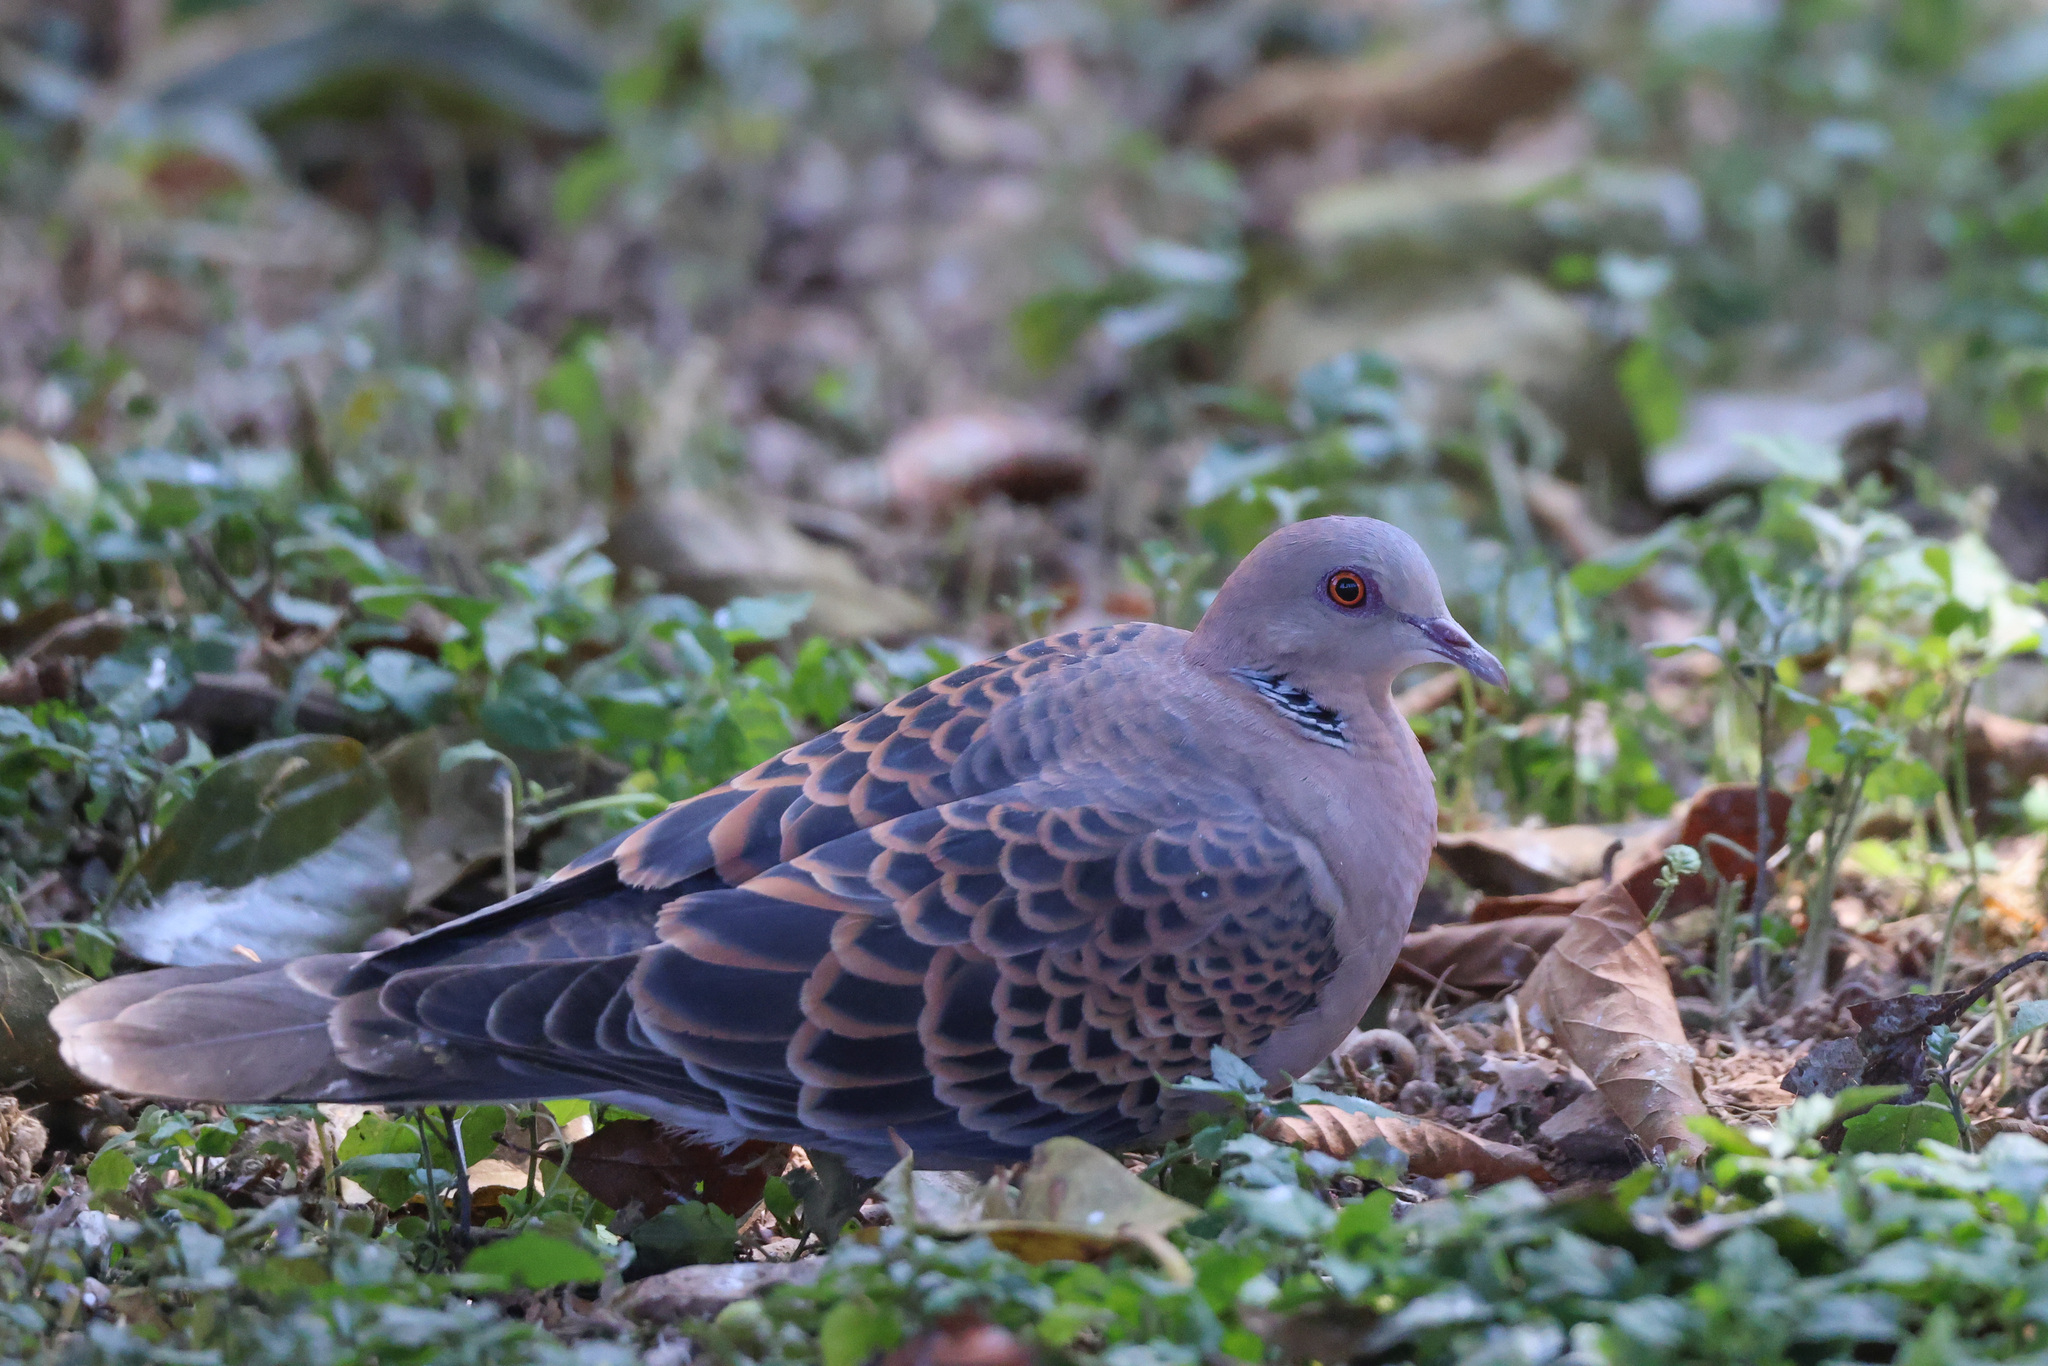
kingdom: Animalia
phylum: Chordata
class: Aves
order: Columbiformes
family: Columbidae
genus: Streptopelia
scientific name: Streptopelia orientalis
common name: Oriental turtle dove
